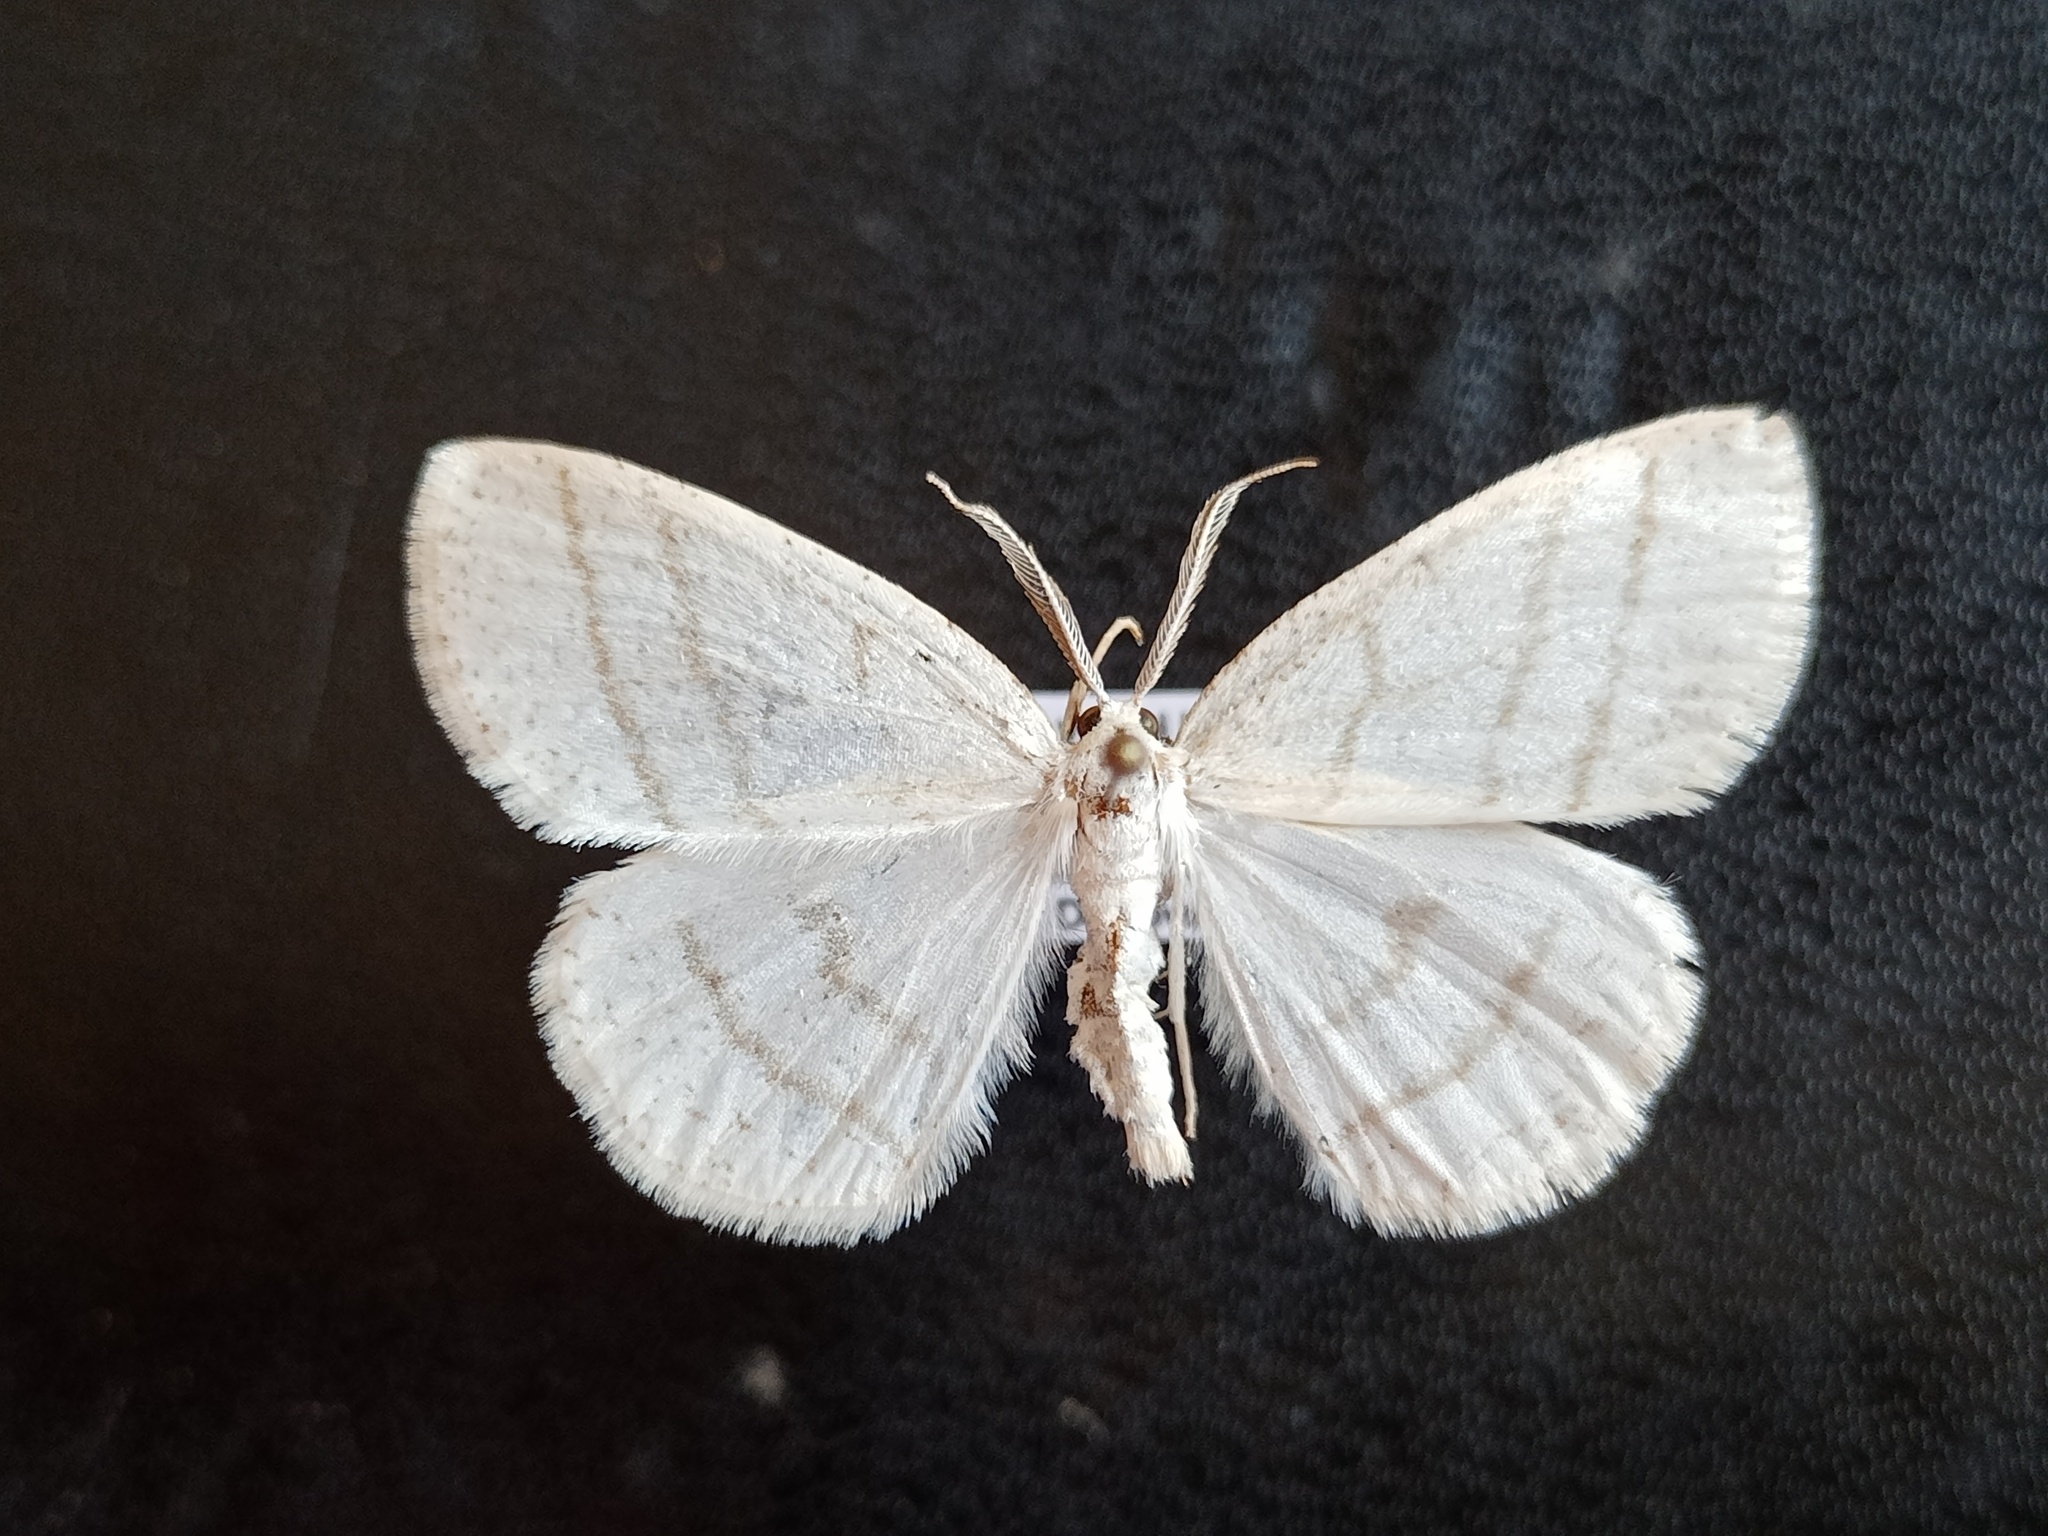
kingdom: Animalia
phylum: Arthropoda
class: Insecta
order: Lepidoptera
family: Geometridae
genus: Cabera
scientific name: Cabera pusaria
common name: Common white wave
